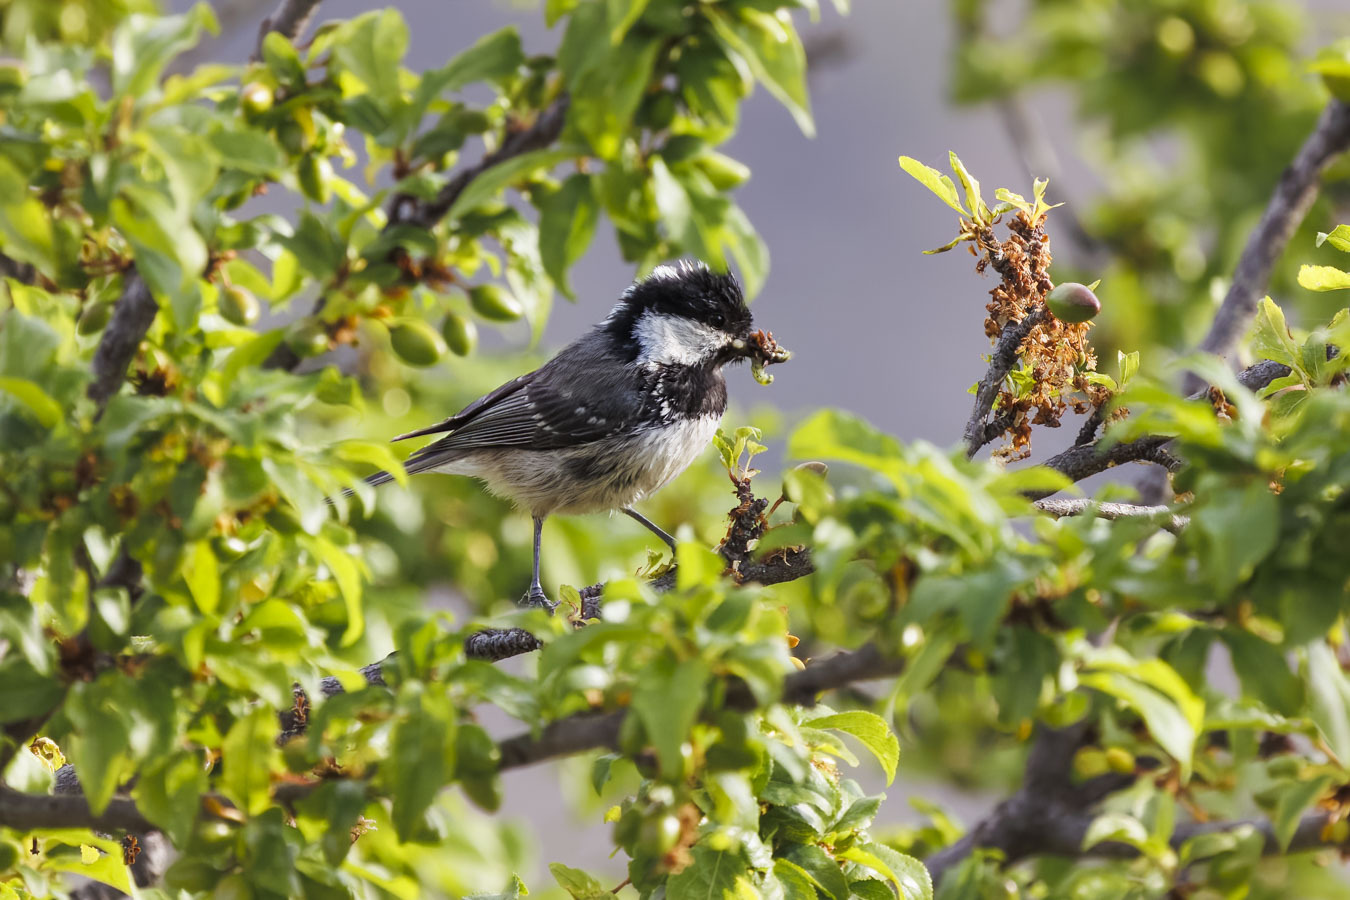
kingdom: Animalia
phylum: Chordata
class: Aves
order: Passeriformes
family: Paridae
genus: Periparus
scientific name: Periparus ater
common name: Coal tit
